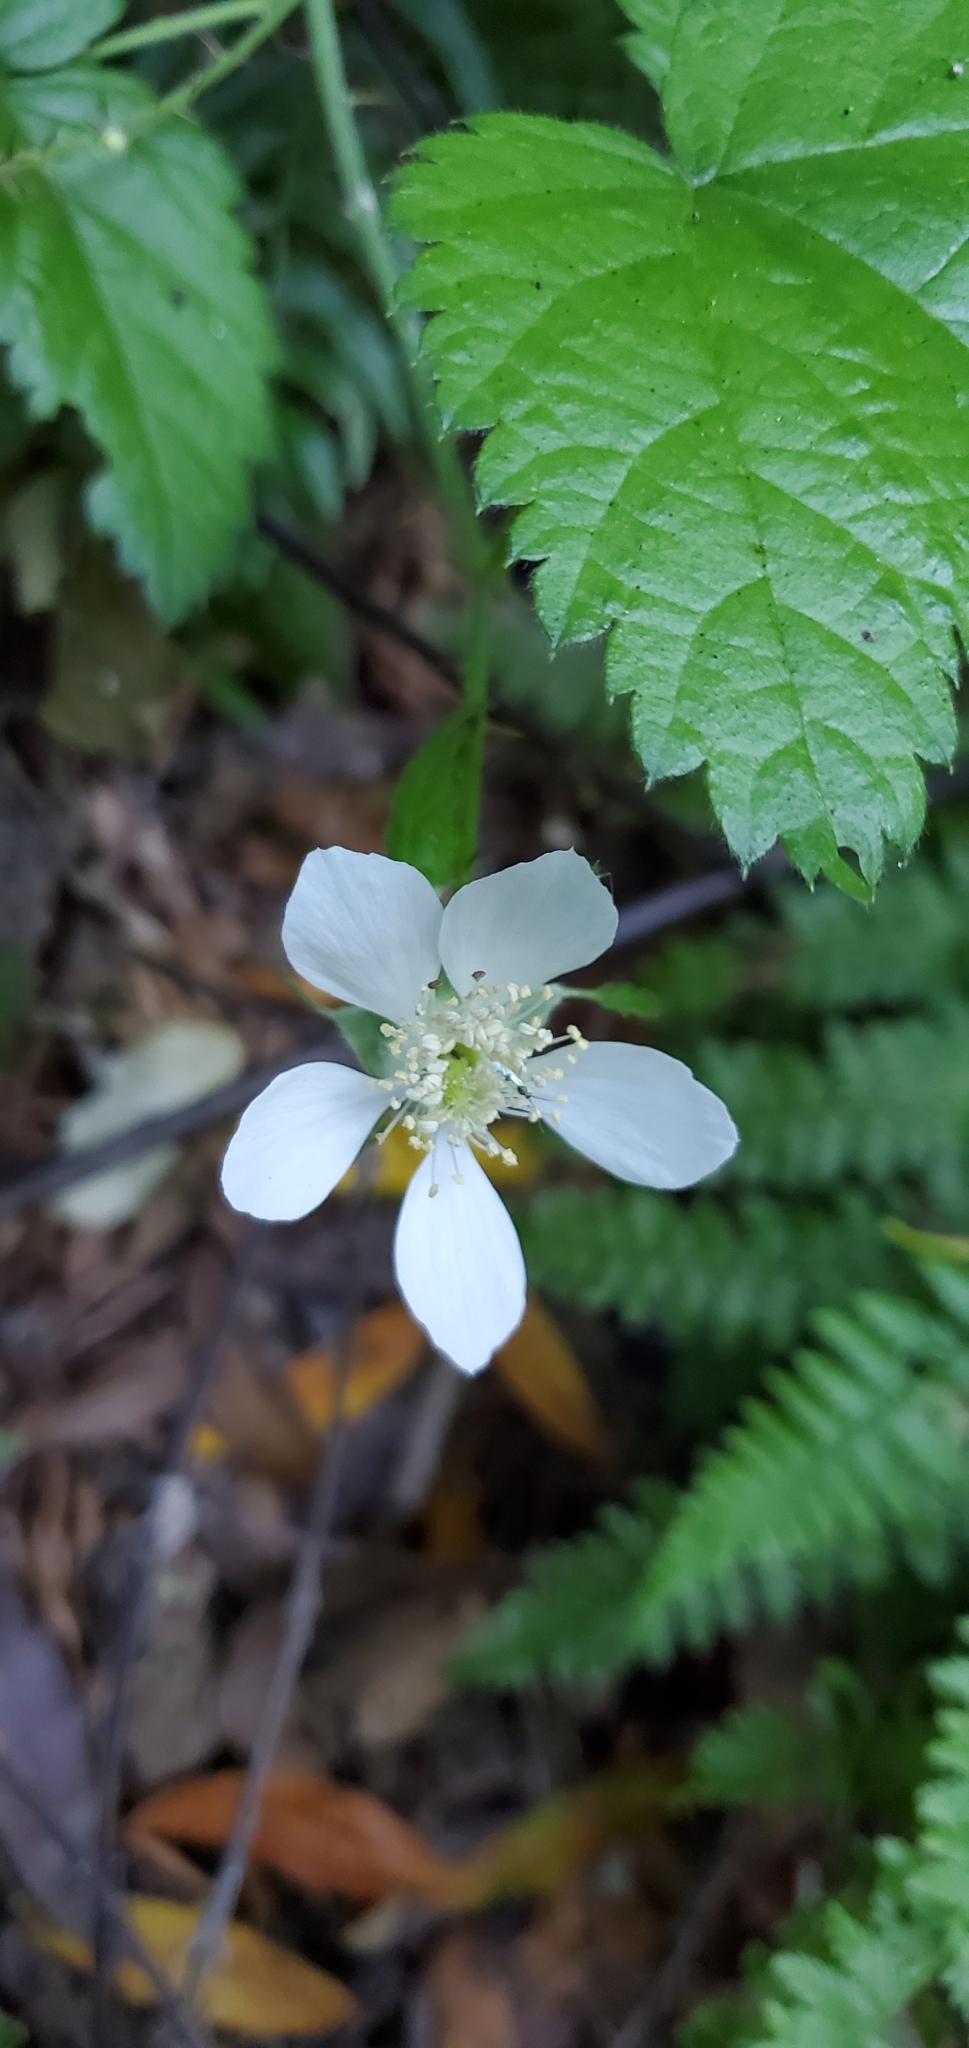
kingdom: Plantae
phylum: Tracheophyta
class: Magnoliopsida
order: Rosales
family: Rosaceae
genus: Rubus
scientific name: Rubus ursinus
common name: Pacific blackberry
